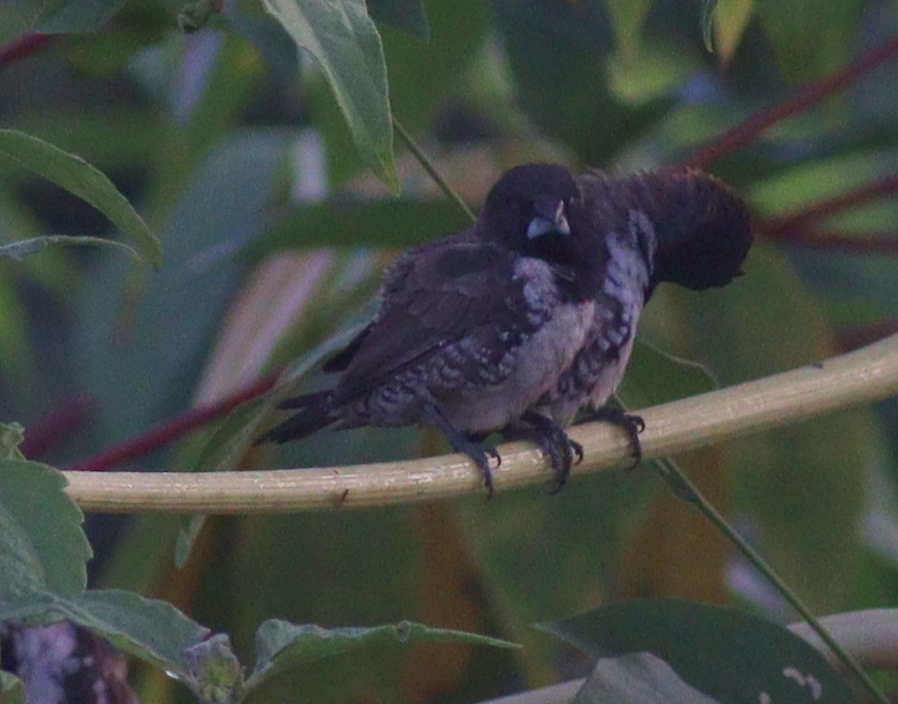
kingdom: Animalia
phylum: Chordata
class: Aves
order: Passeriformes
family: Estrildidae
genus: Lonchura
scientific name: Lonchura cucullata
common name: Bronze mannikin
